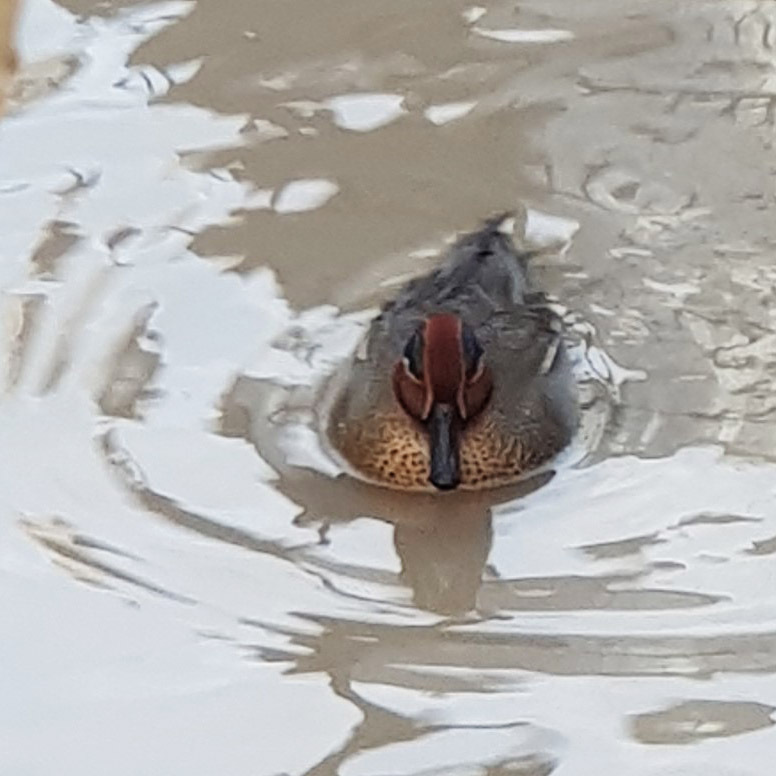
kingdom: Animalia
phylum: Chordata
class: Aves
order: Anseriformes
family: Anatidae
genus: Anas
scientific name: Anas crecca
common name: Eurasian teal
